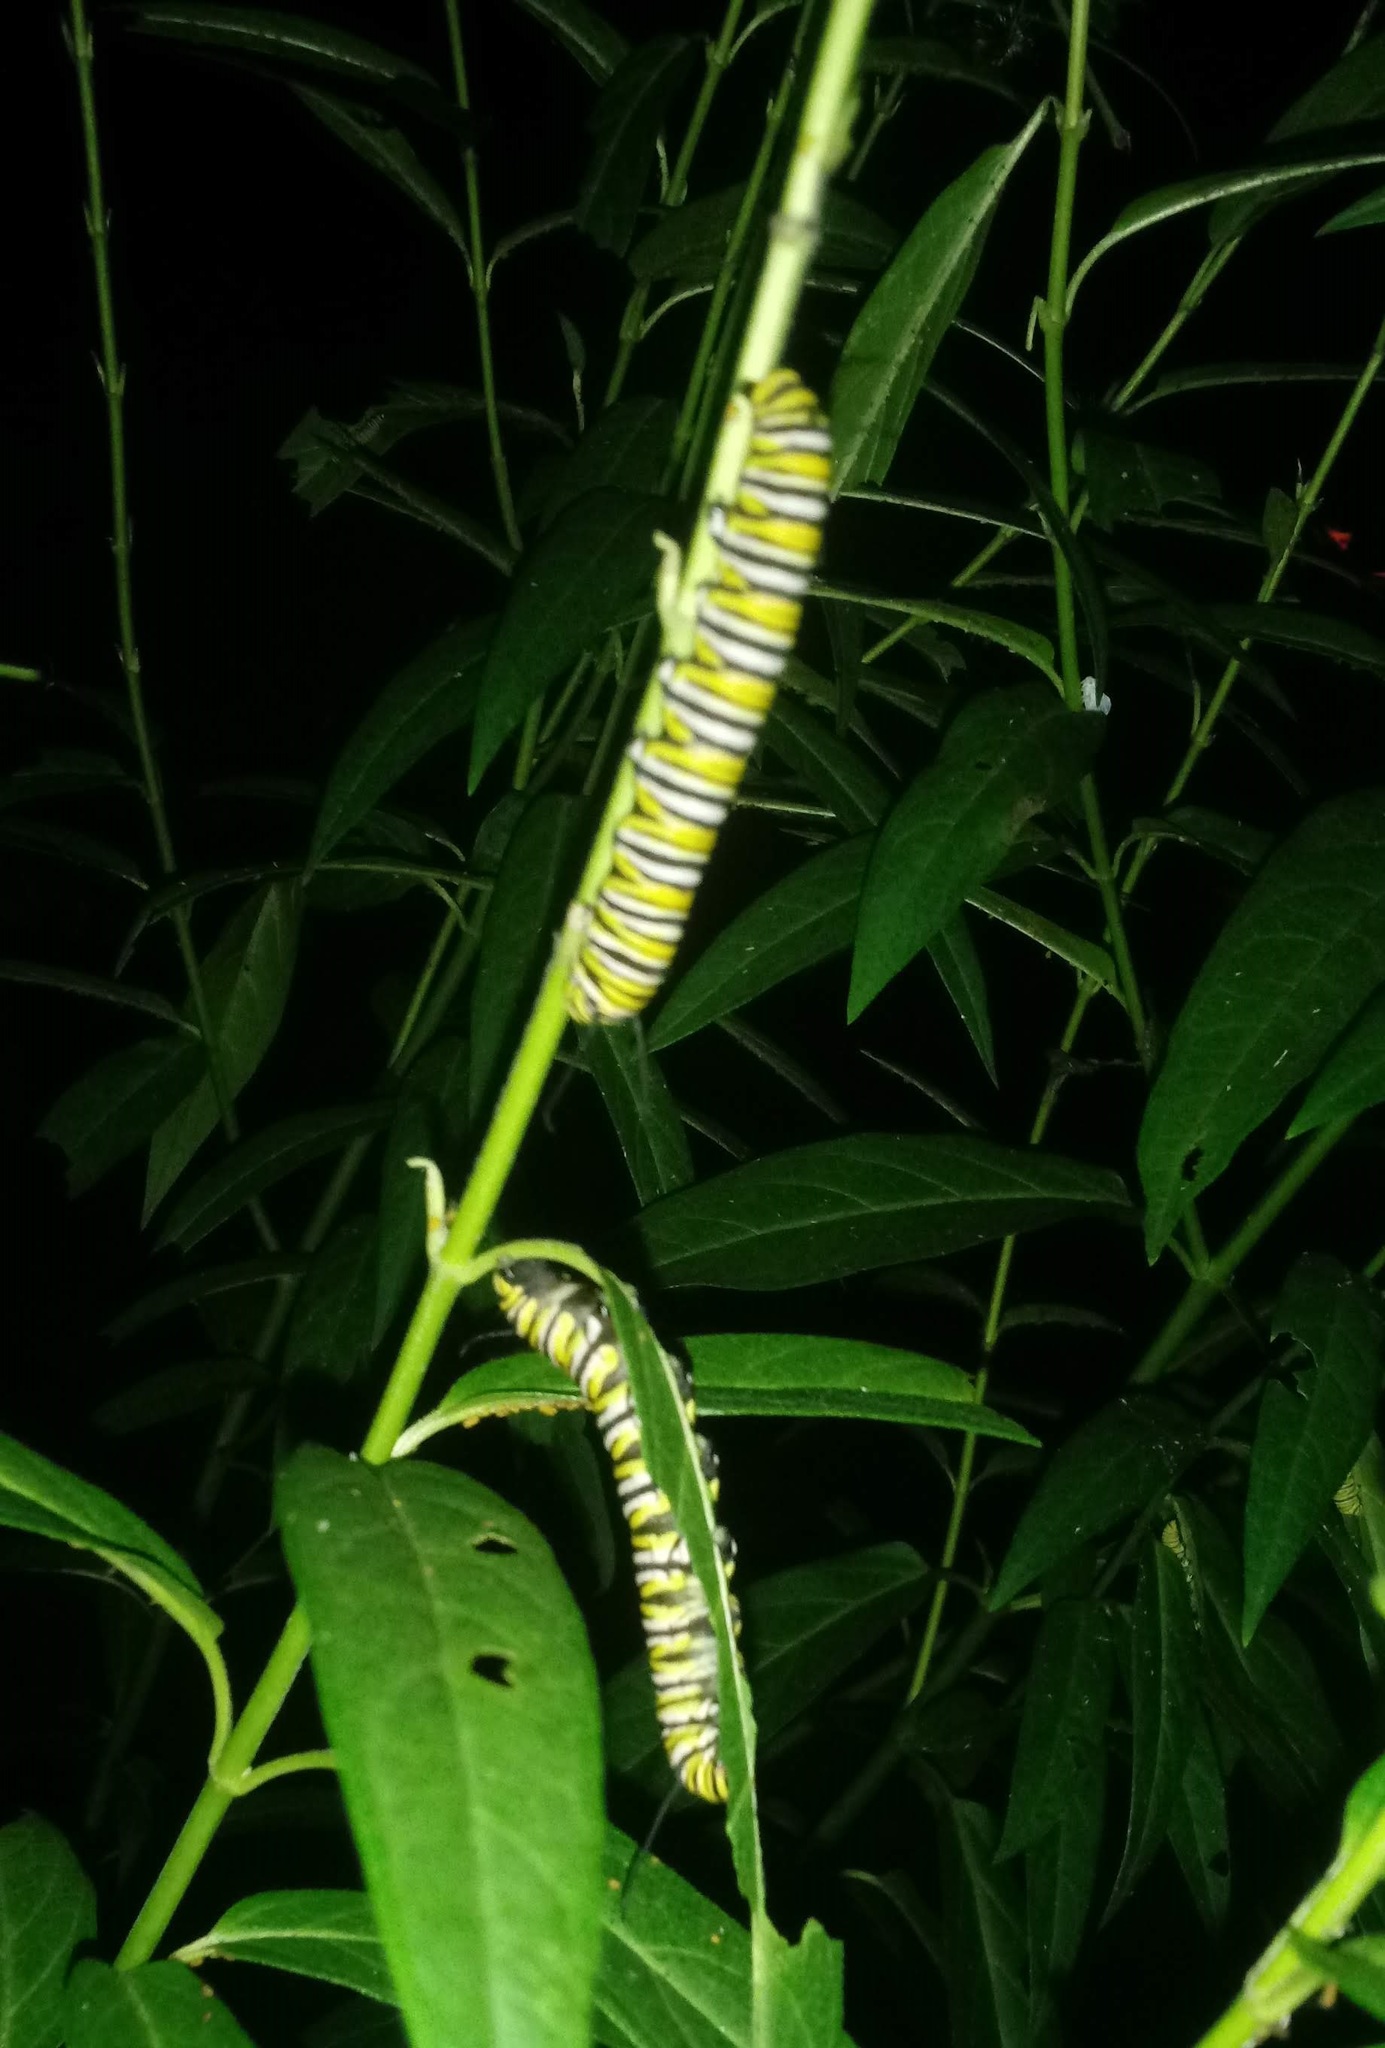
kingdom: Animalia
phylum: Arthropoda
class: Insecta
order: Lepidoptera
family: Nymphalidae
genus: Danaus
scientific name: Danaus plexippus
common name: Monarch
